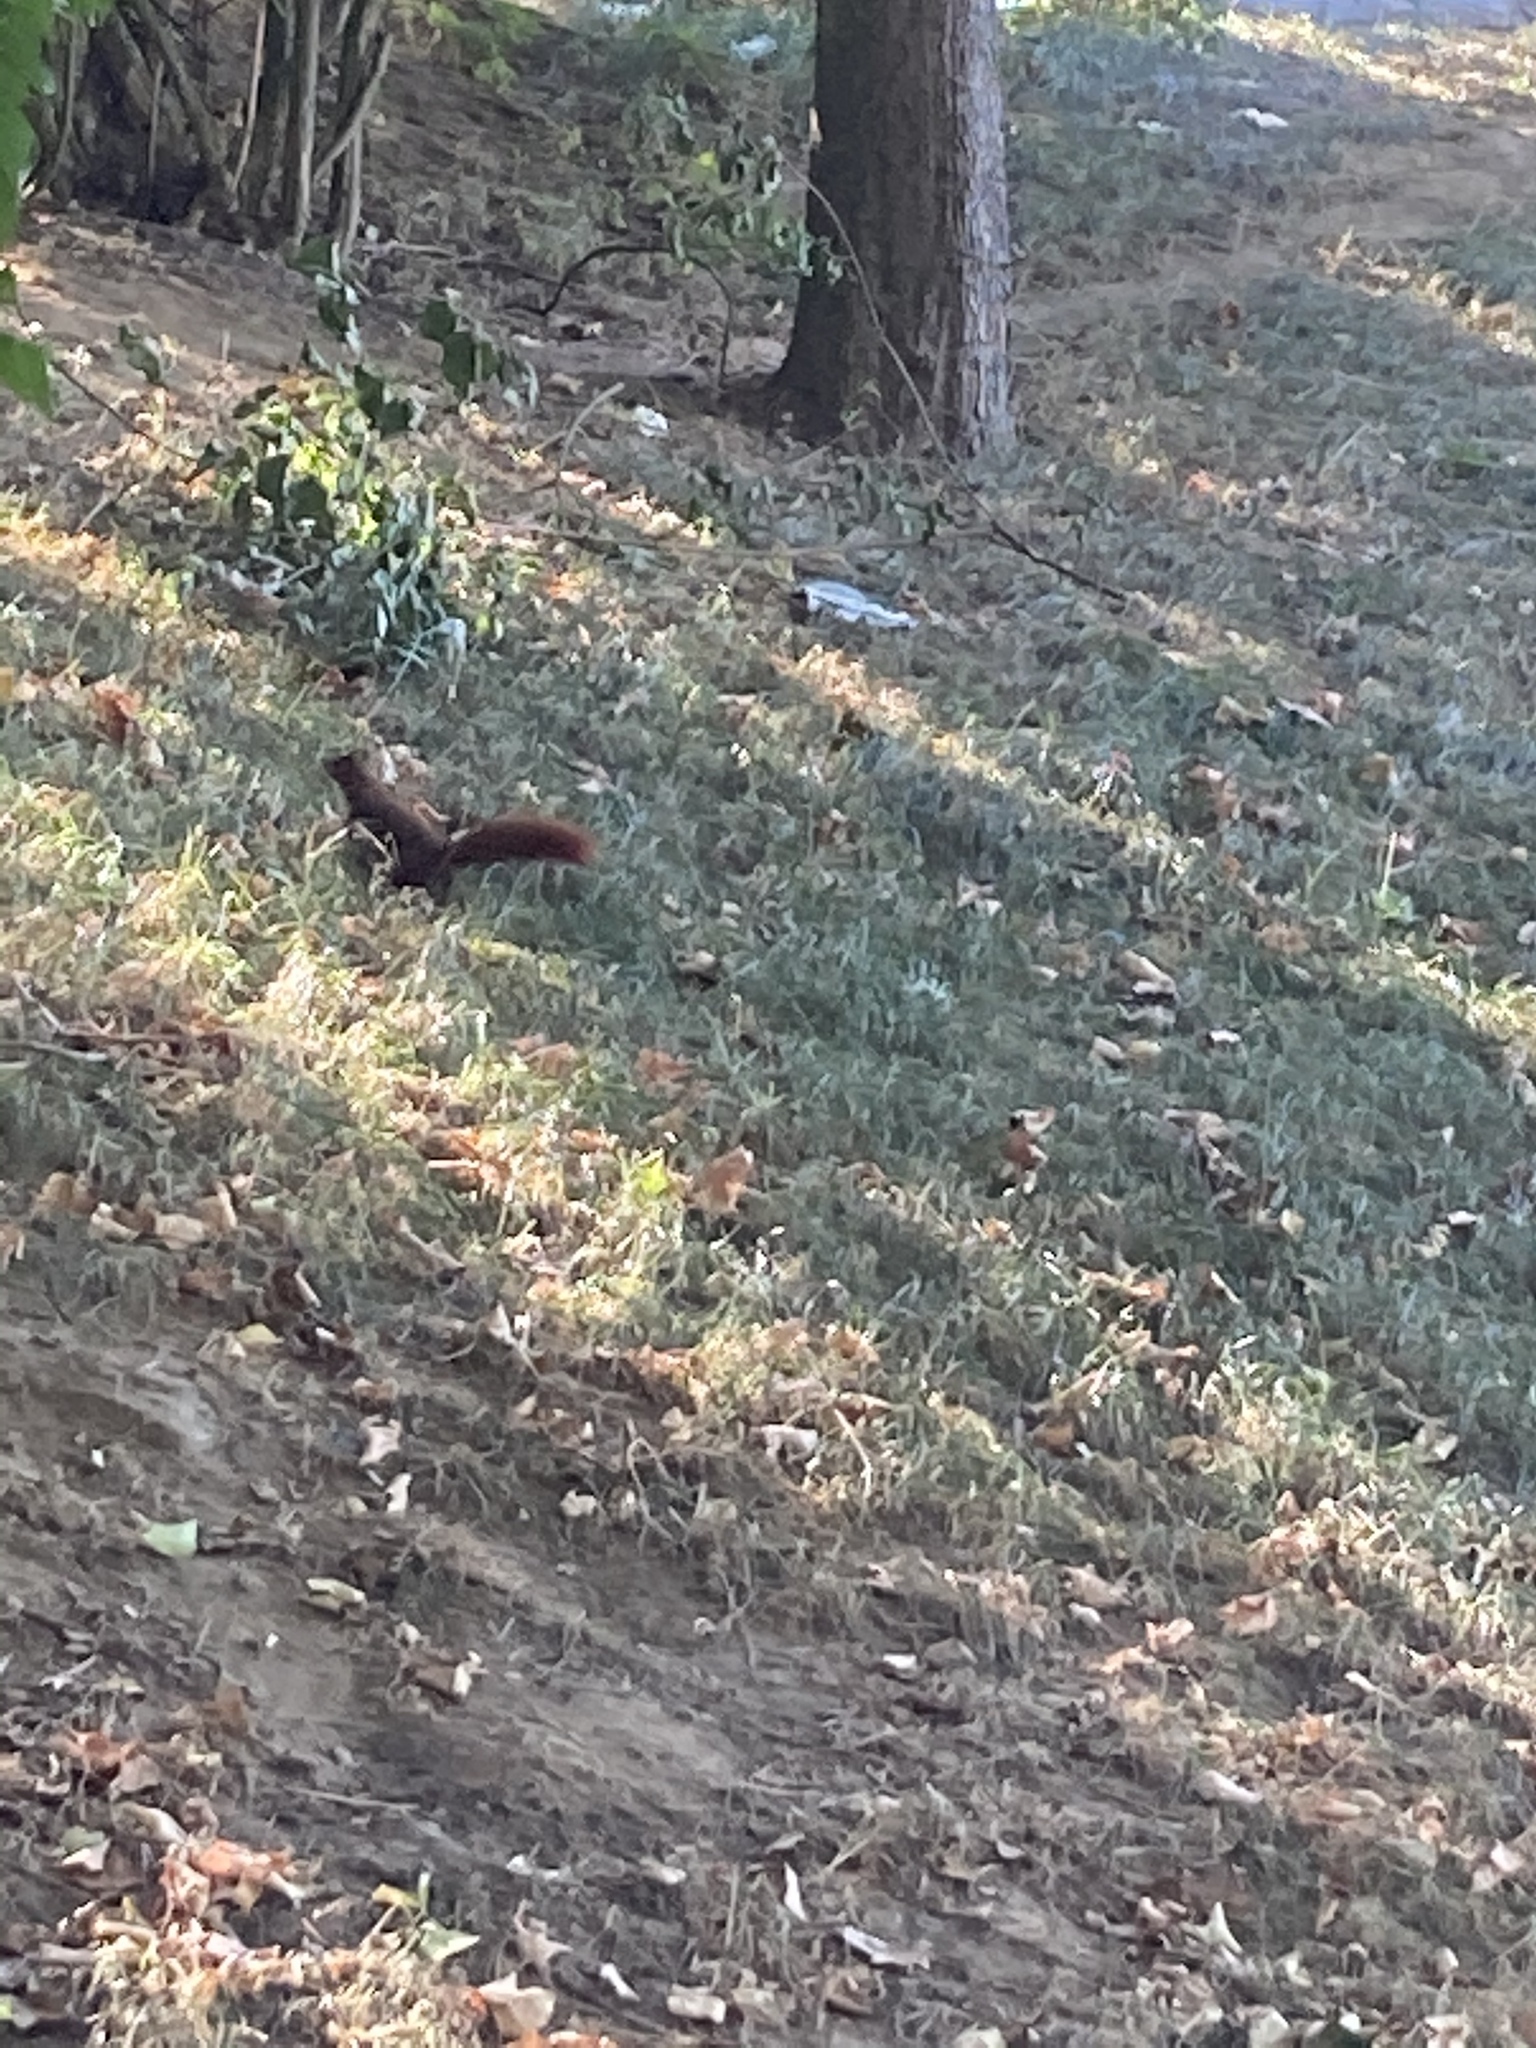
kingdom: Animalia
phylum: Chordata
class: Mammalia
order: Rodentia
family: Sciuridae
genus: Sciurus
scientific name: Sciurus vulgaris
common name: Eurasian red squirrel
